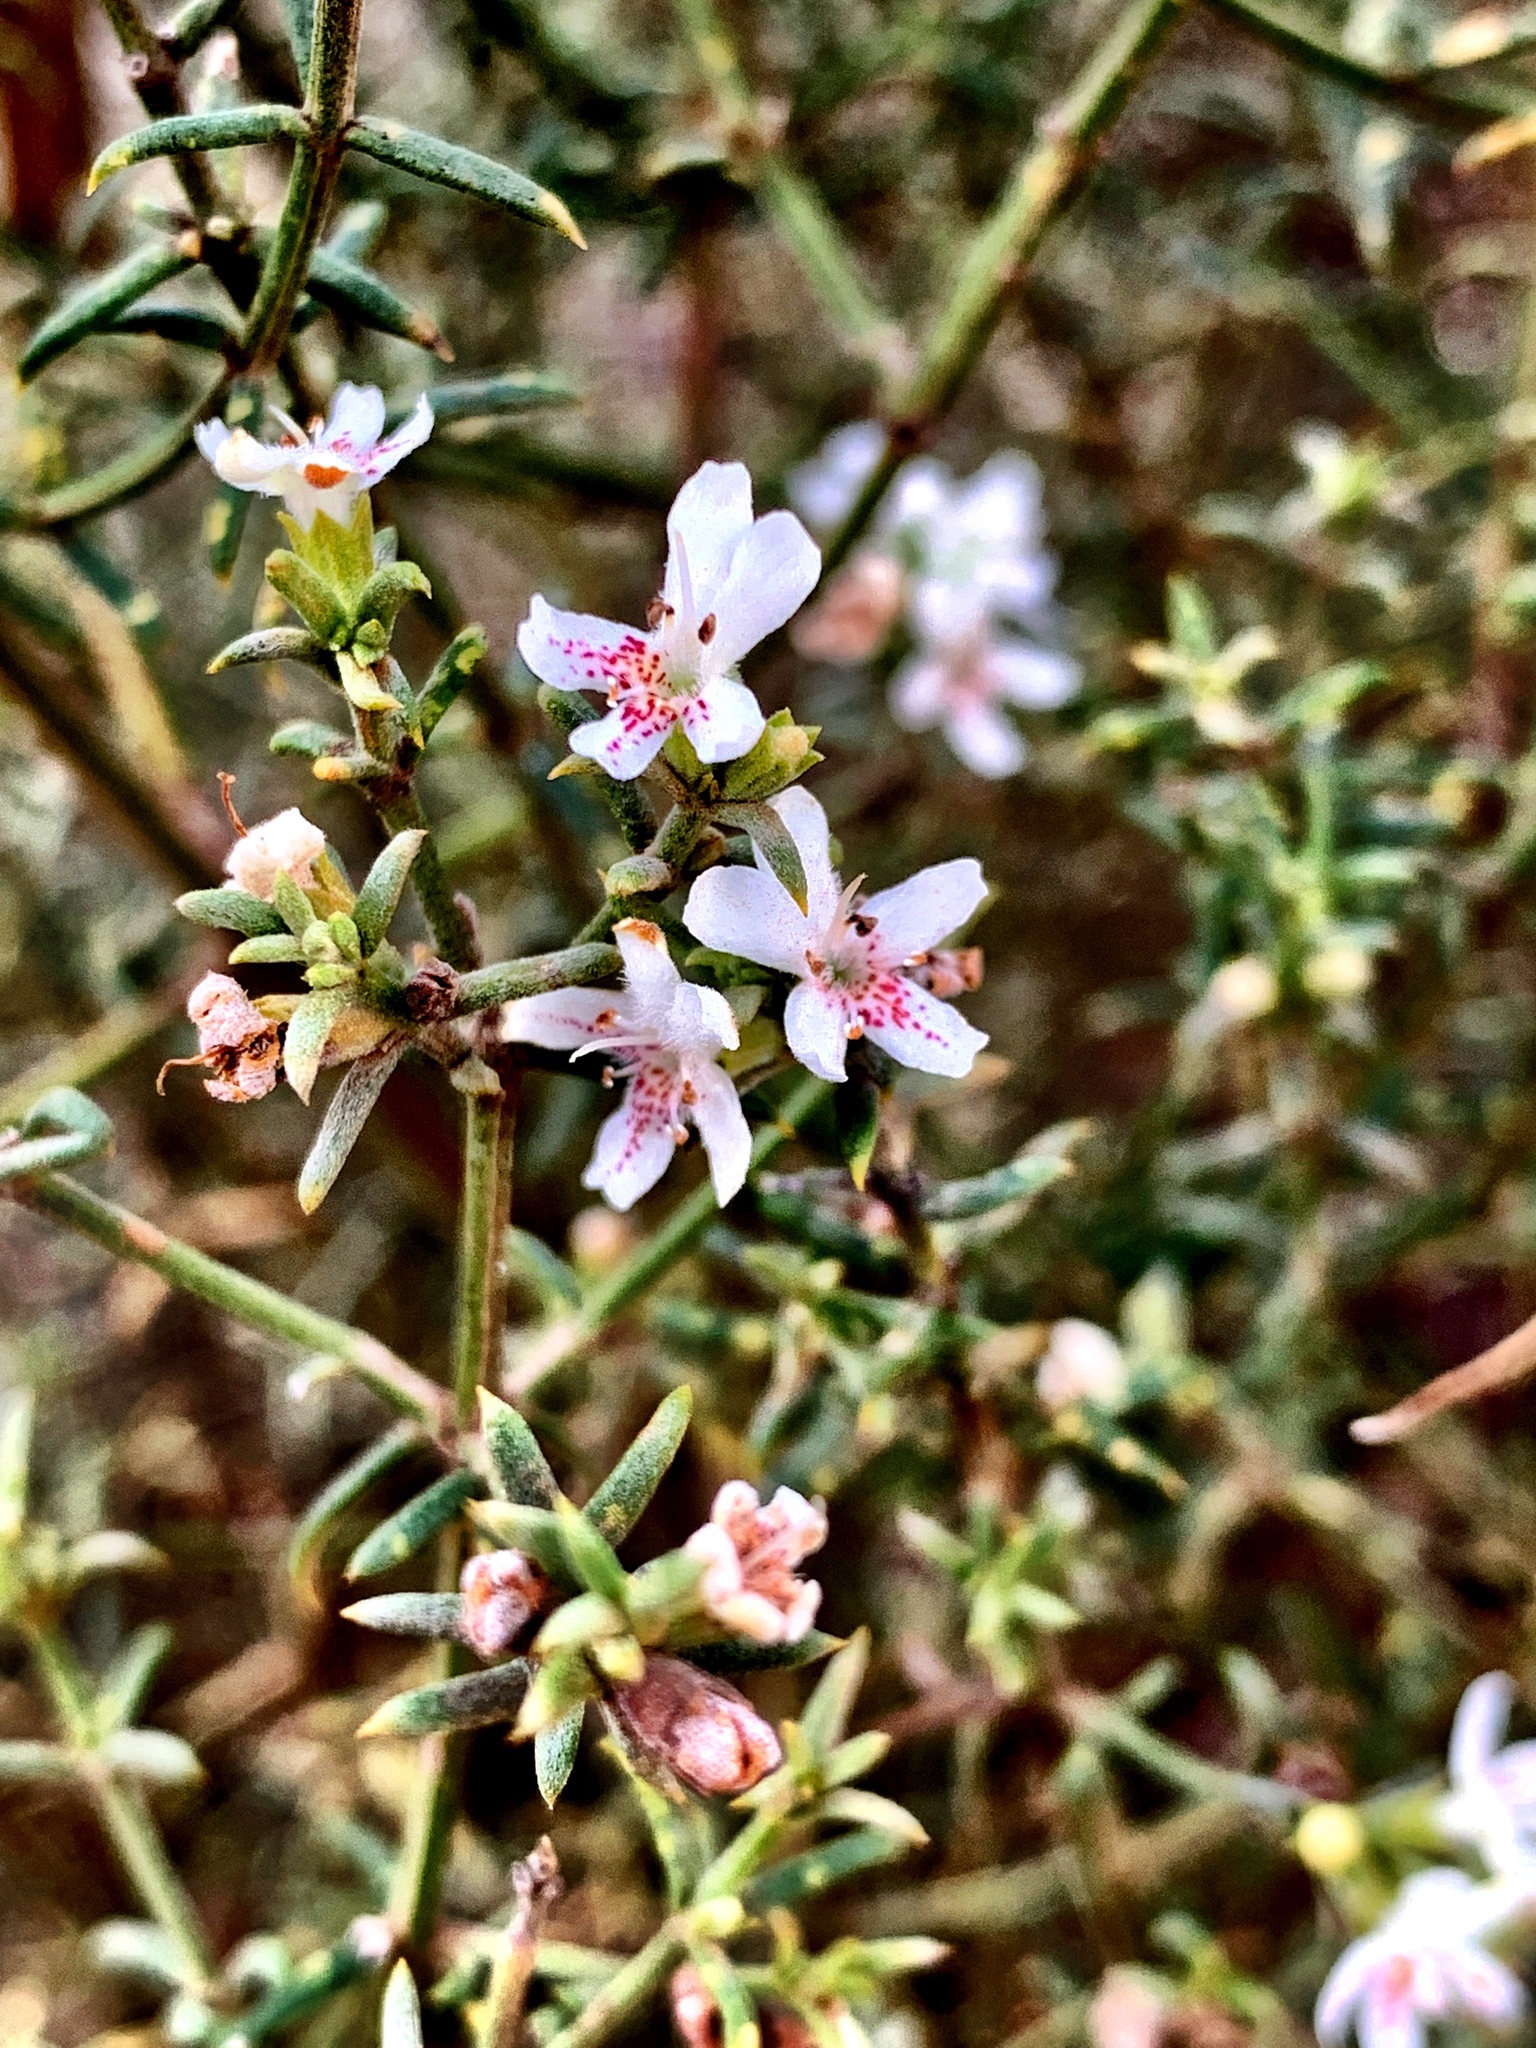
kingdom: Plantae
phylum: Tracheophyta
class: Magnoliopsida
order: Lamiales
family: Lamiaceae
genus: Westringia
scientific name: Westringia rigida
